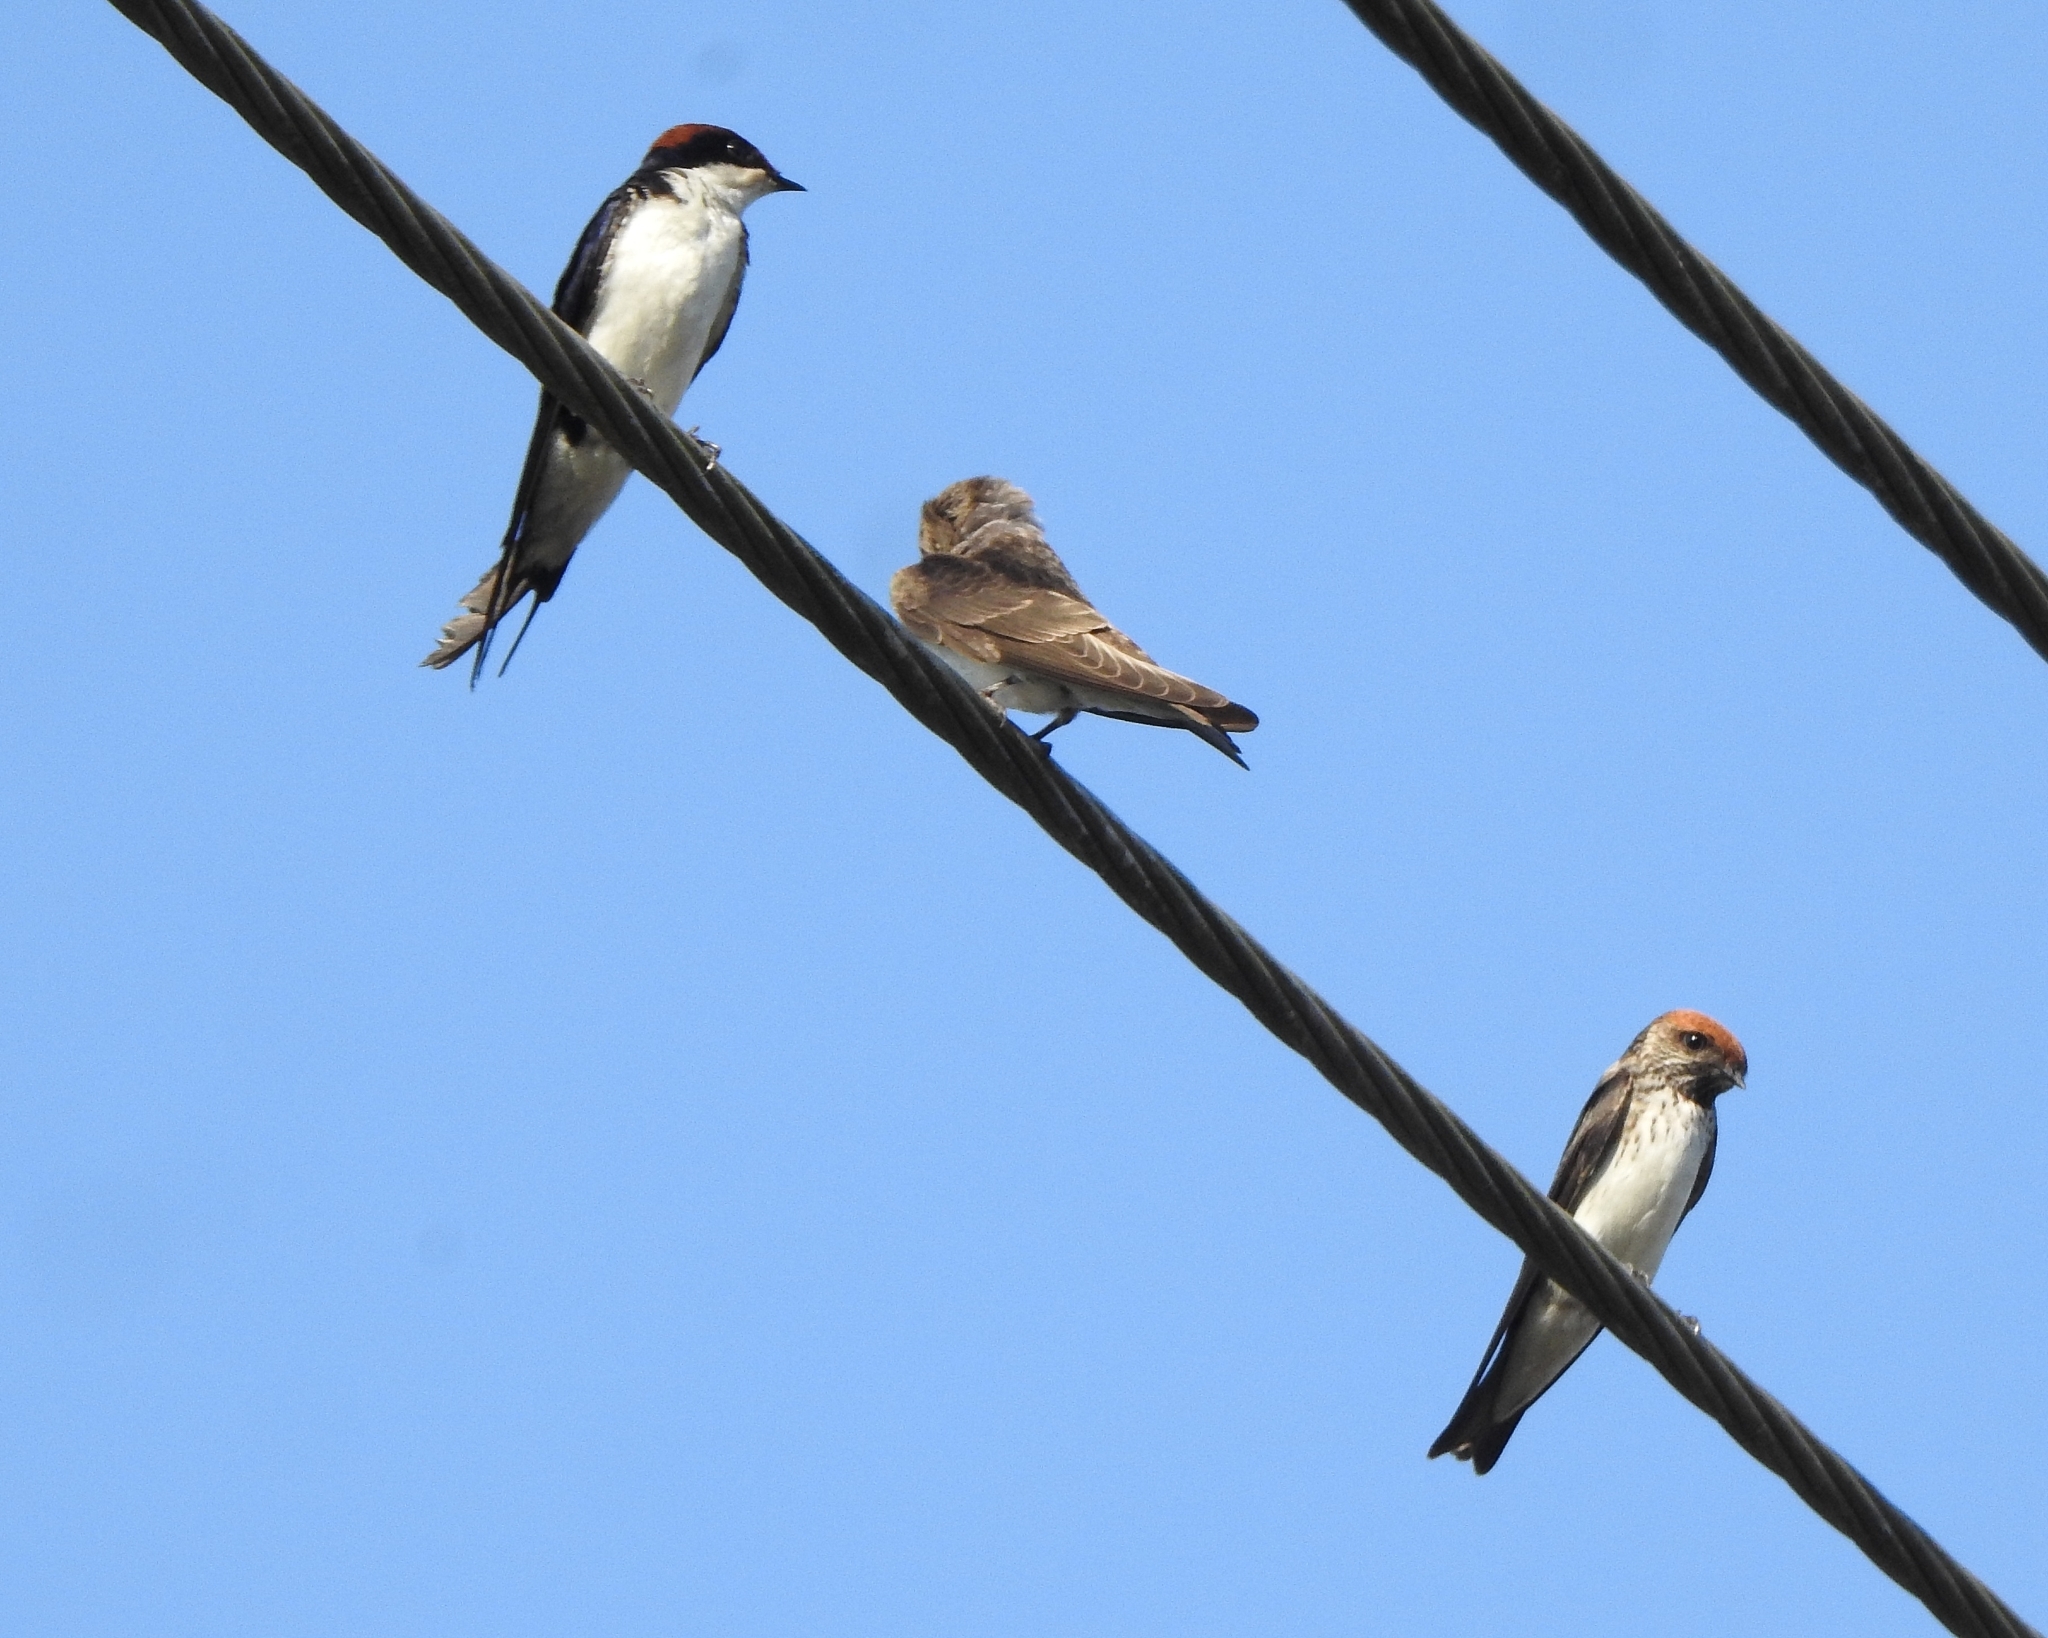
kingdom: Animalia
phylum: Chordata
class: Aves
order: Passeriformes
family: Hirundinidae
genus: Hirundo
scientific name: Hirundo smithii
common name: Wire-tailed swallow
